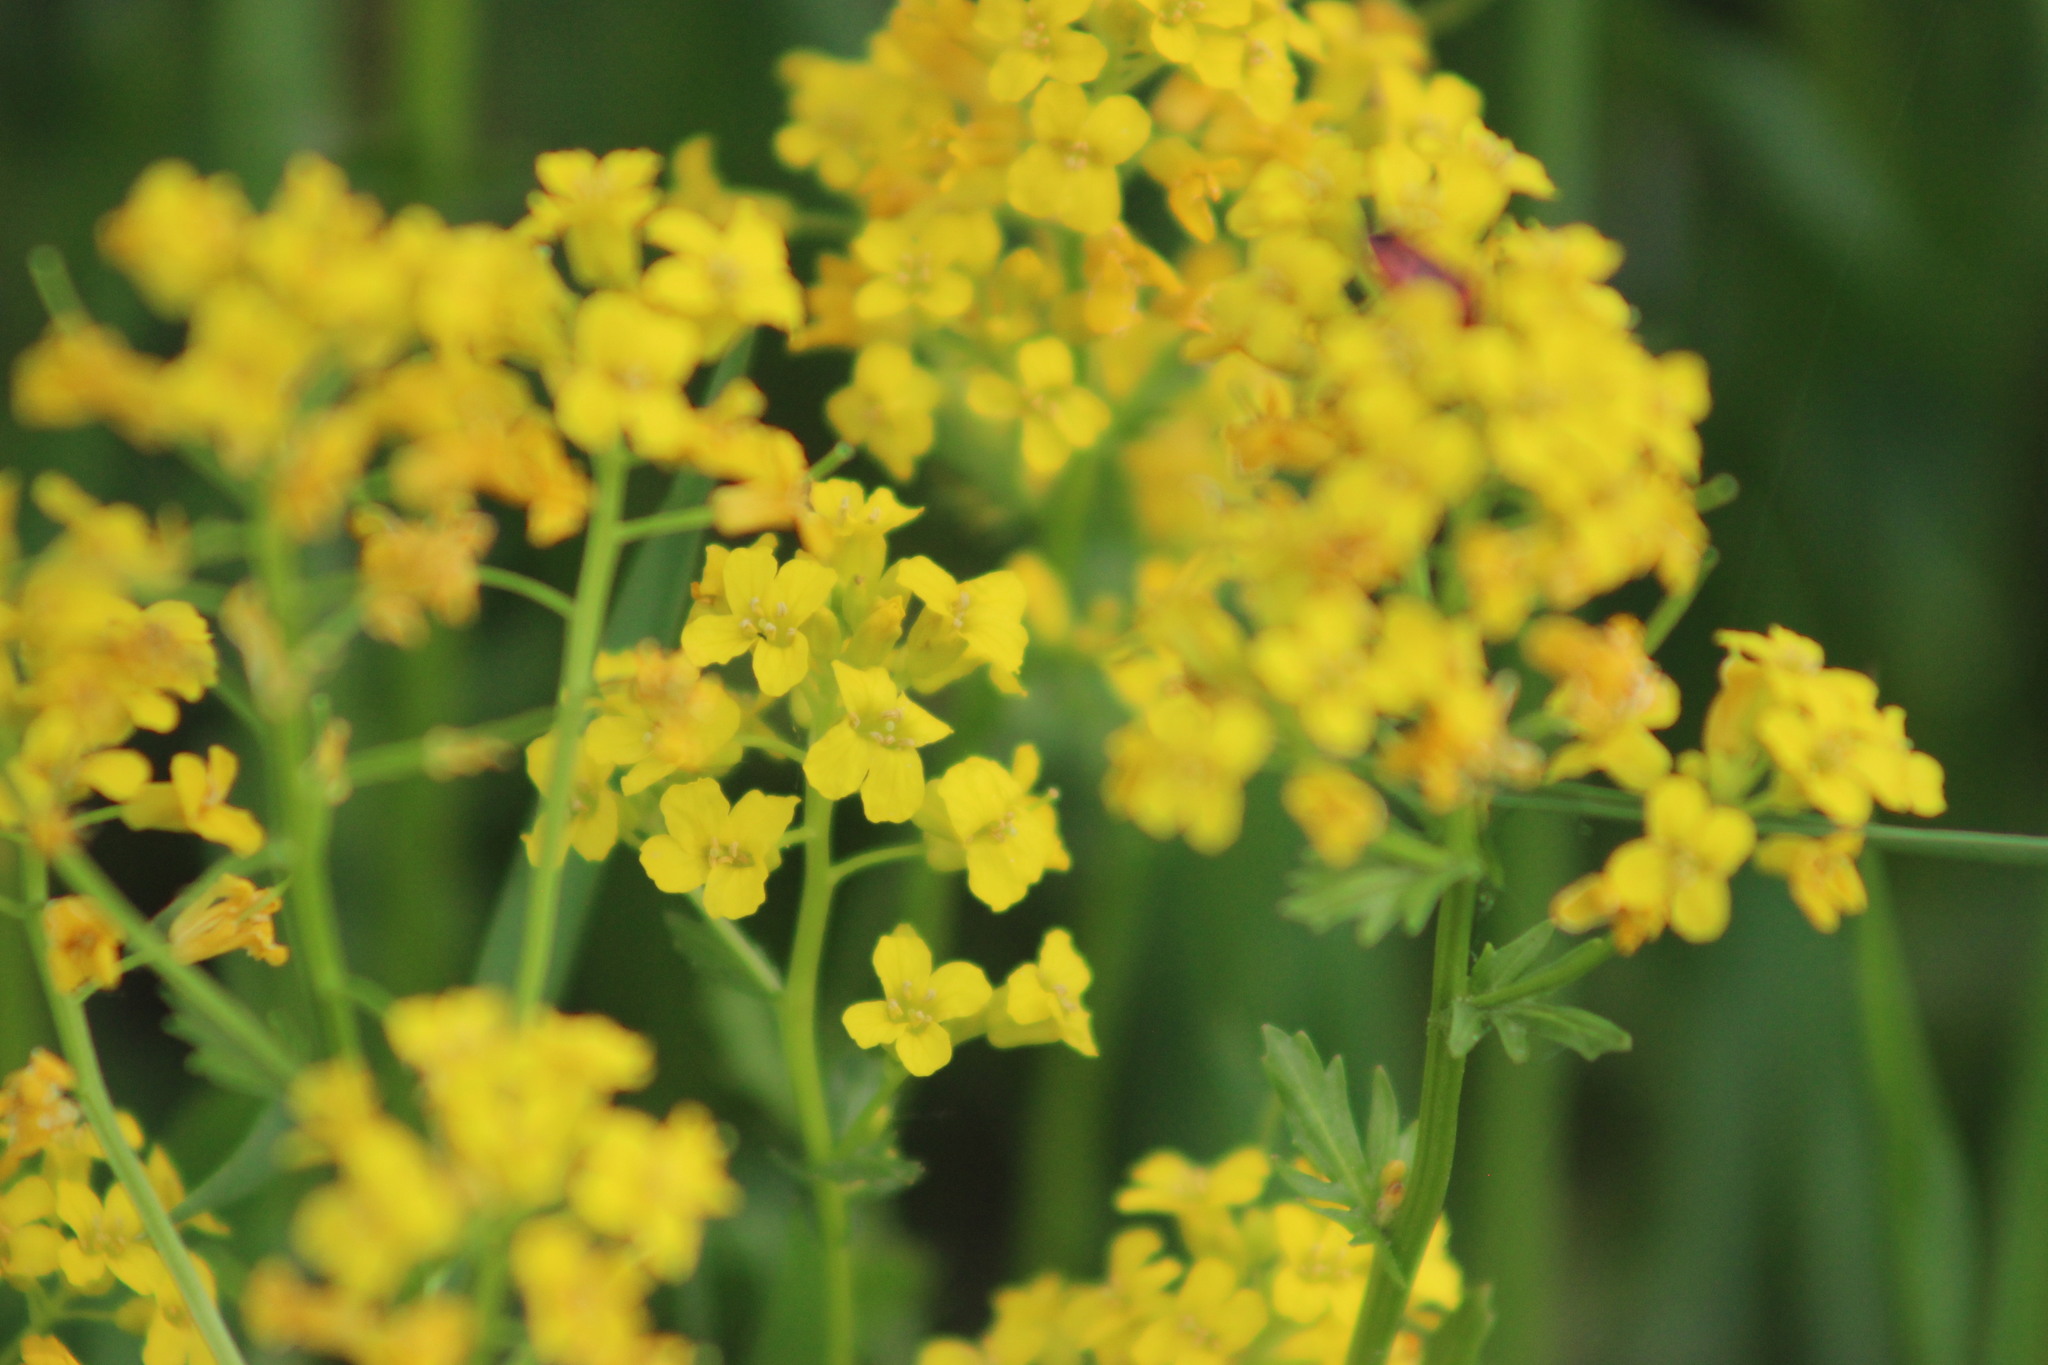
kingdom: Plantae
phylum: Tracheophyta
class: Magnoliopsida
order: Brassicales
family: Brassicaceae
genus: Barbarea
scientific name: Barbarea vulgaris
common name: Cressy-greens
